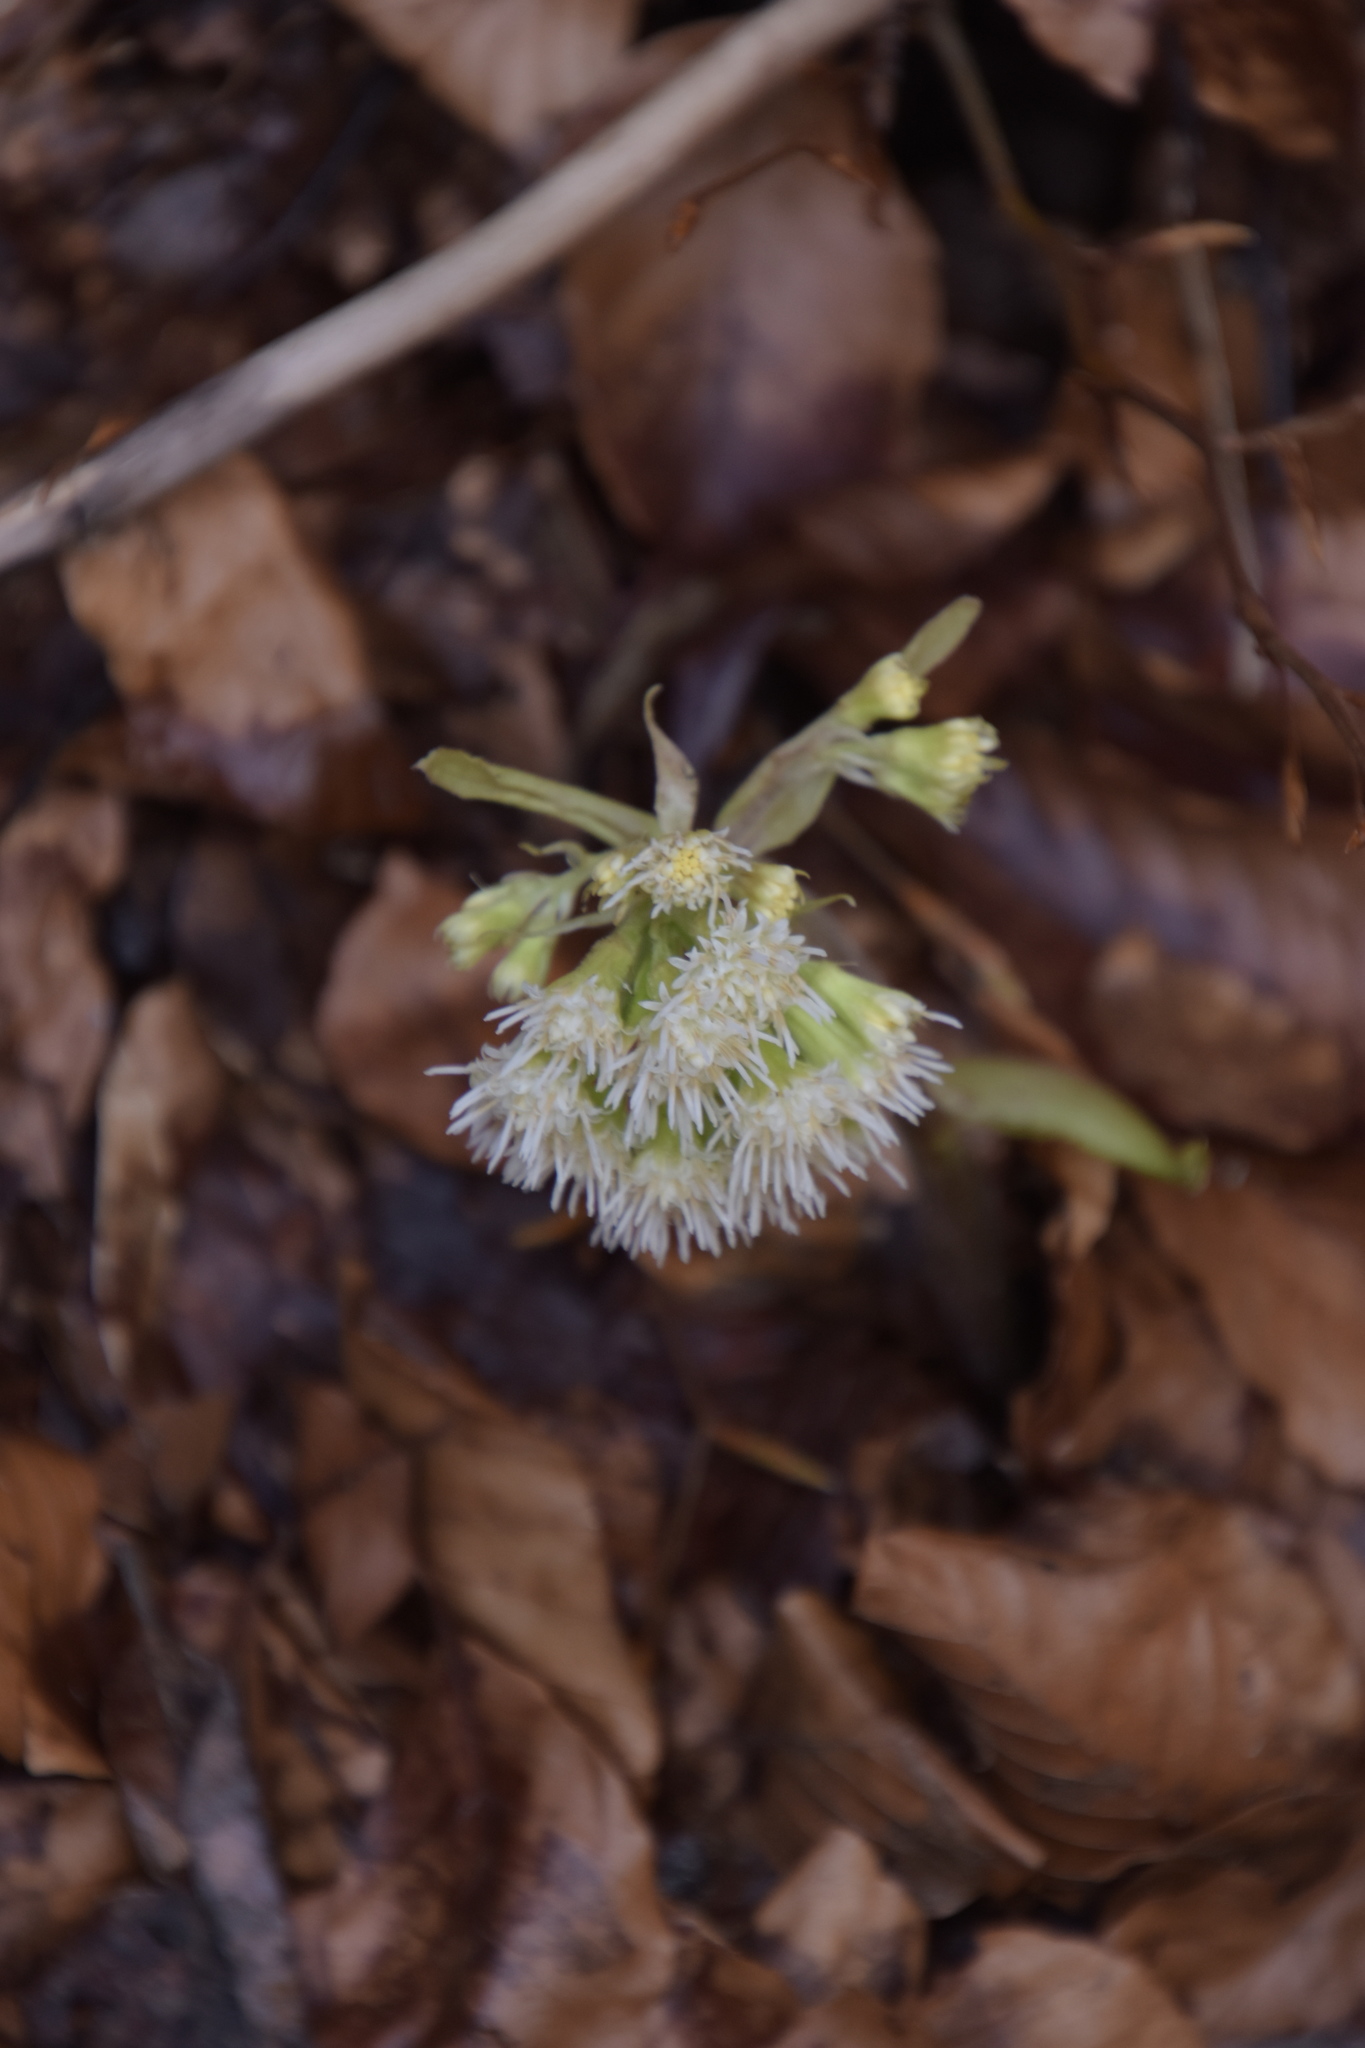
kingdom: Plantae
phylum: Tracheophyta
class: Magnoliopsida
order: Asterales
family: Asteraceae
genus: Petasites
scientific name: Petasites albus
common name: White butterbur
